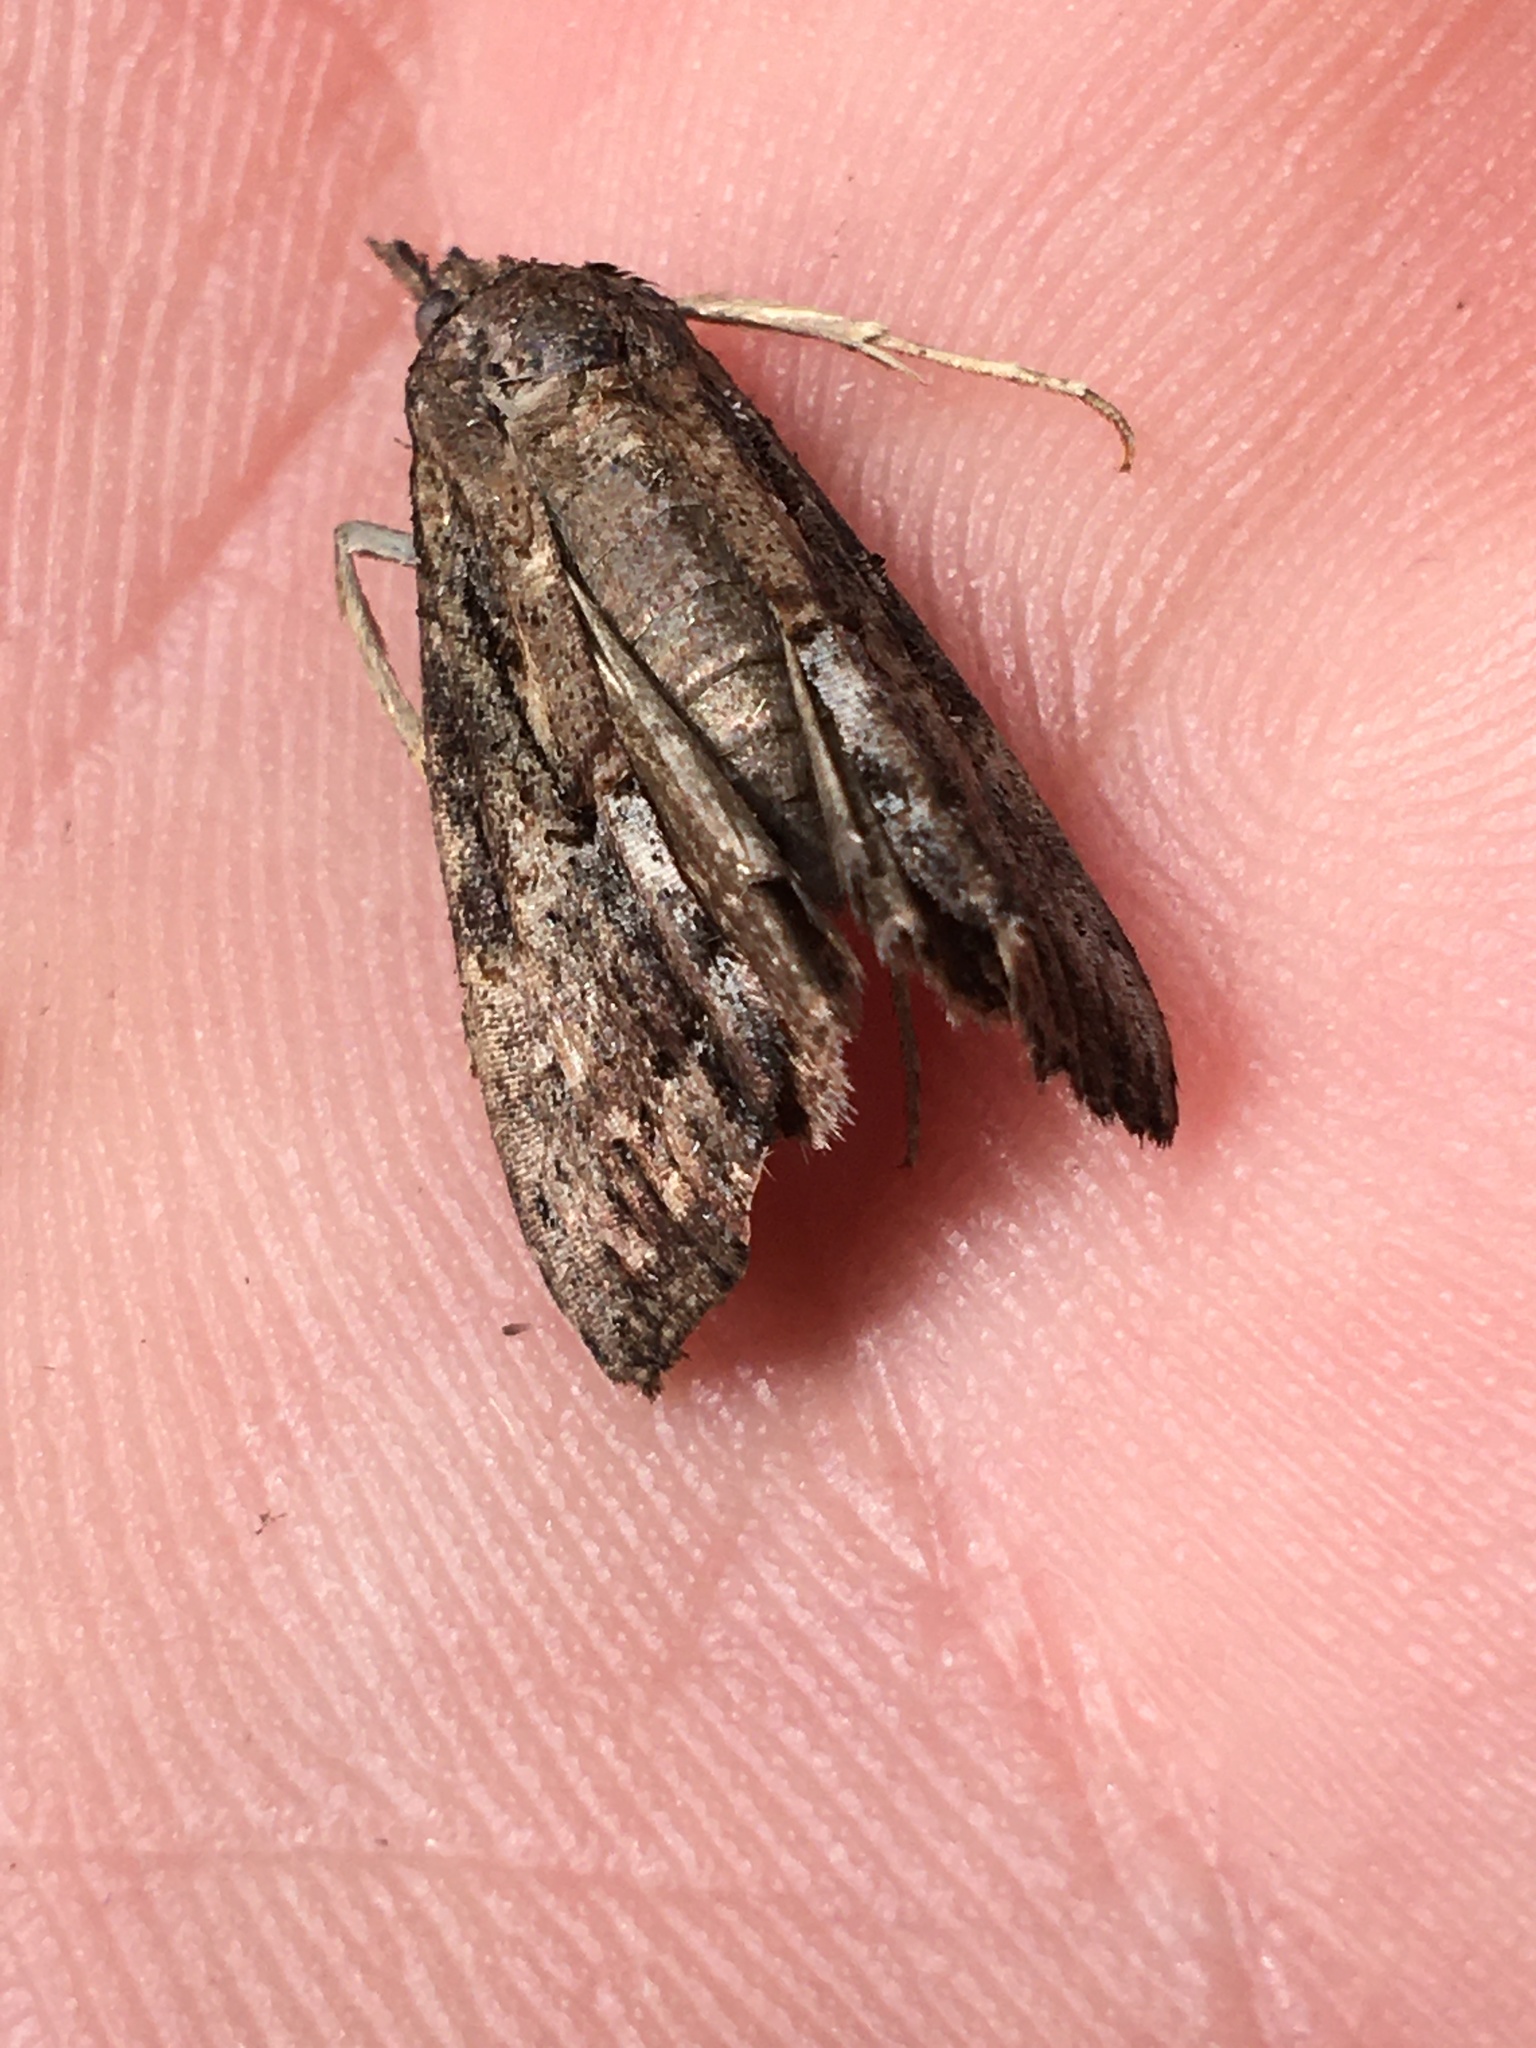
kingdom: Animalia
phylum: Arthropoda
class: Insecta
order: Lepidoptera
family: Erebidae
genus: Hypena
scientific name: Hypena scabra
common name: Green cloverworm
